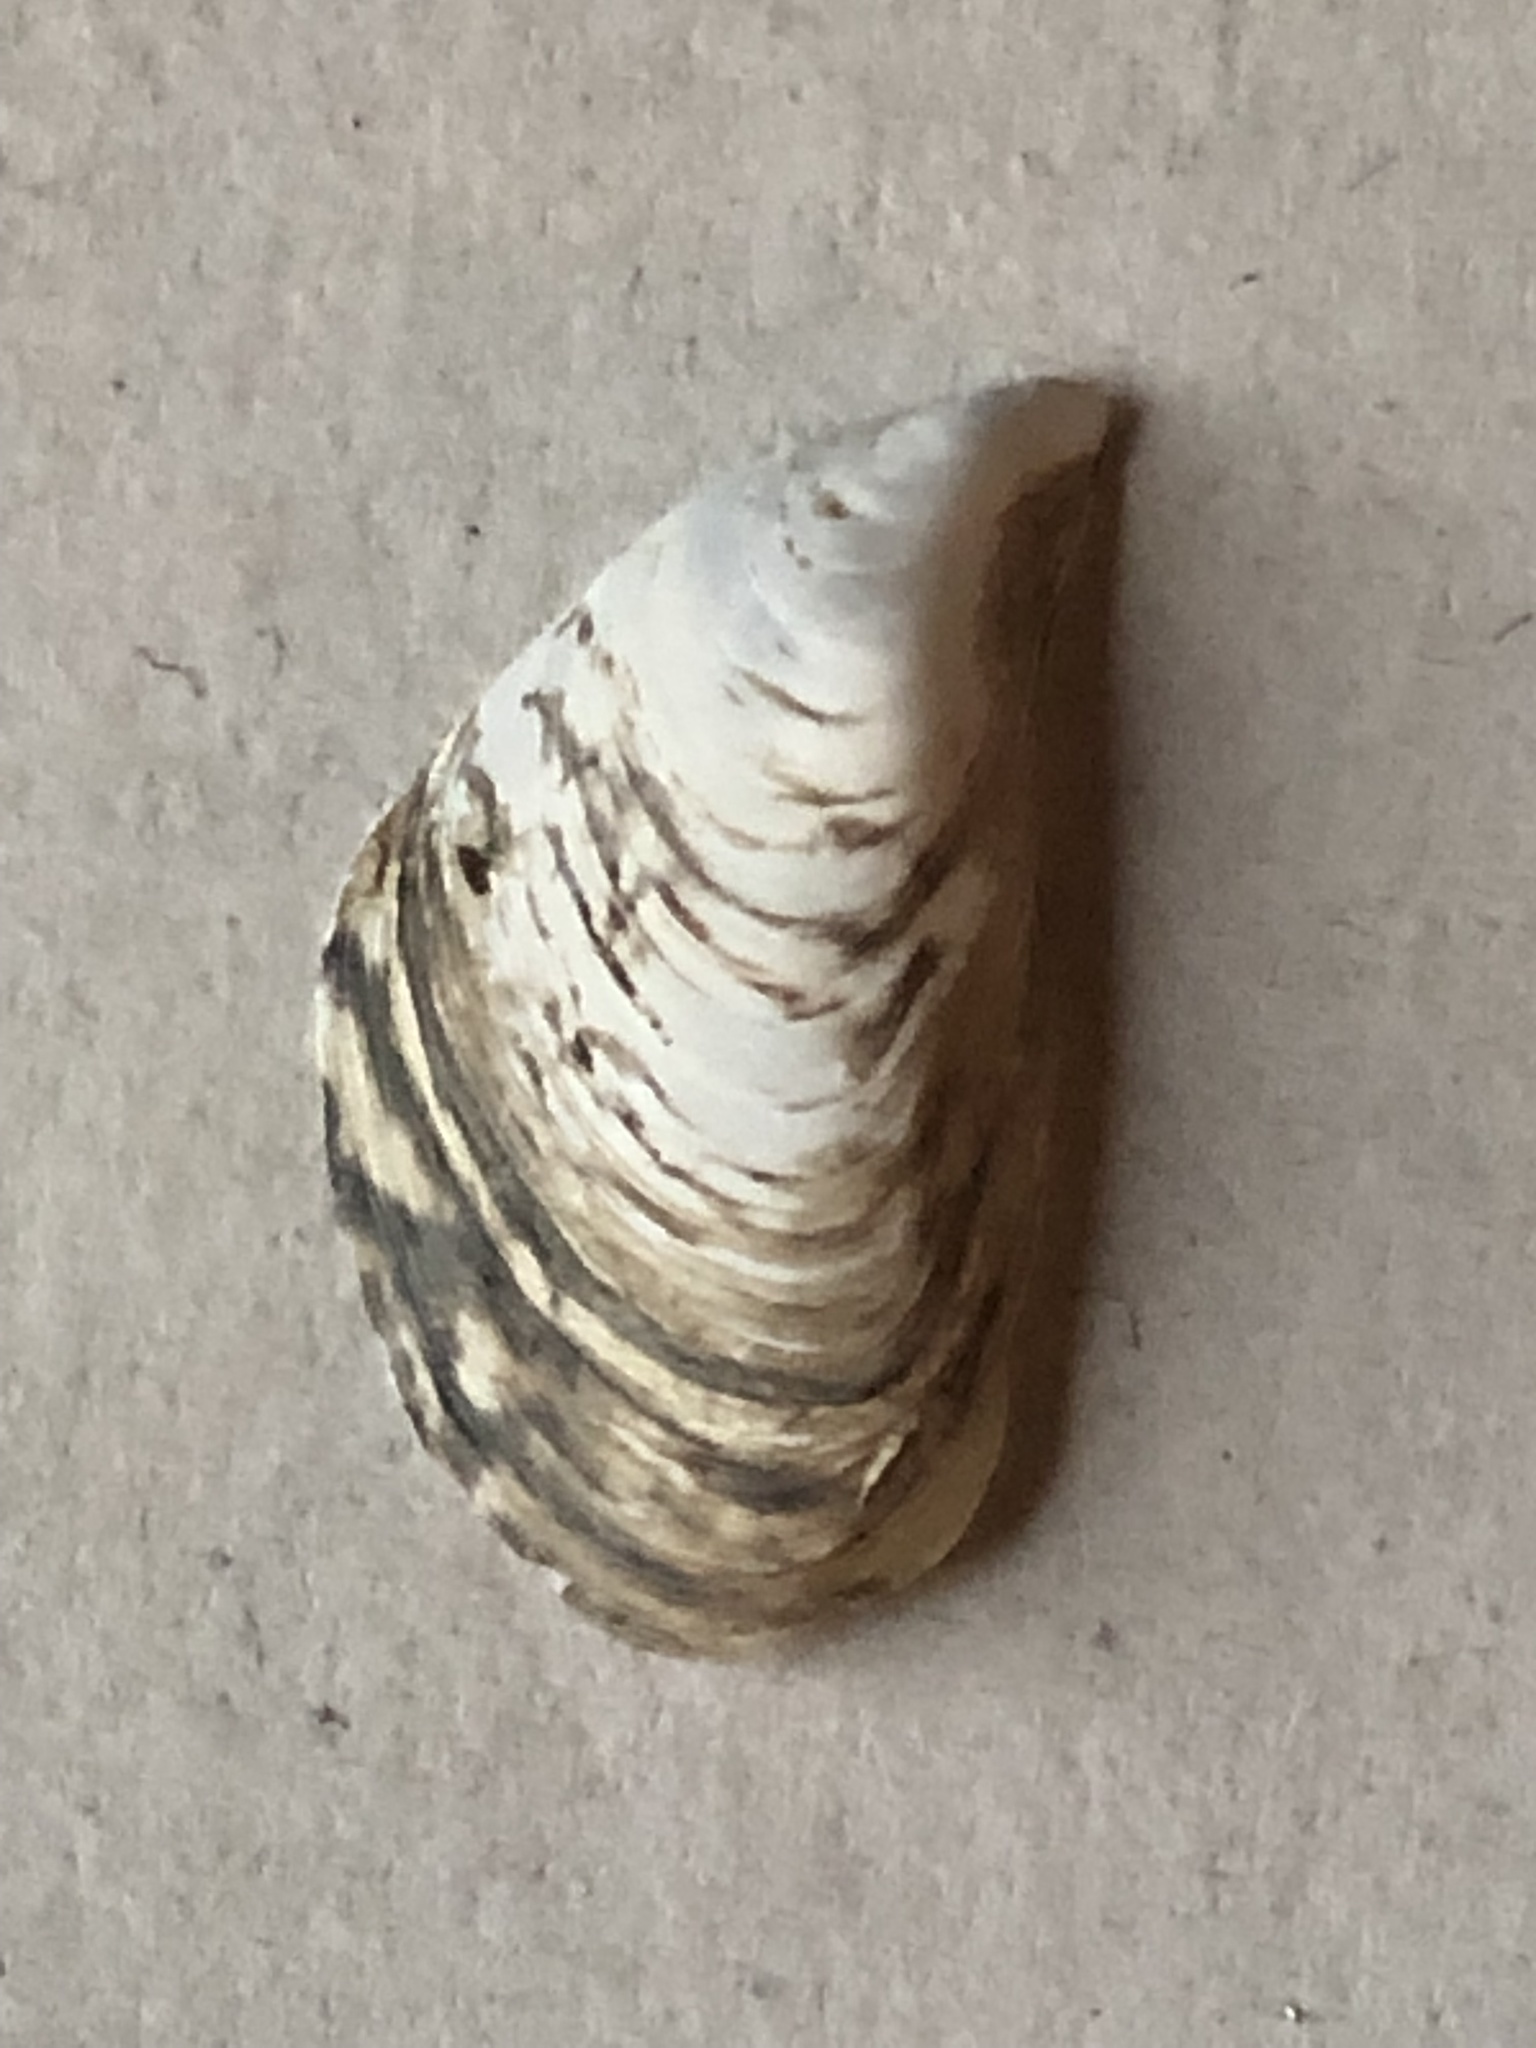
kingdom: Animalia
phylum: Mollusca
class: Bivalvia
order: Myida
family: Dreissenidae
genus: Dreissena
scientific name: Dreissena bugensis
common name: Quagga mussel
